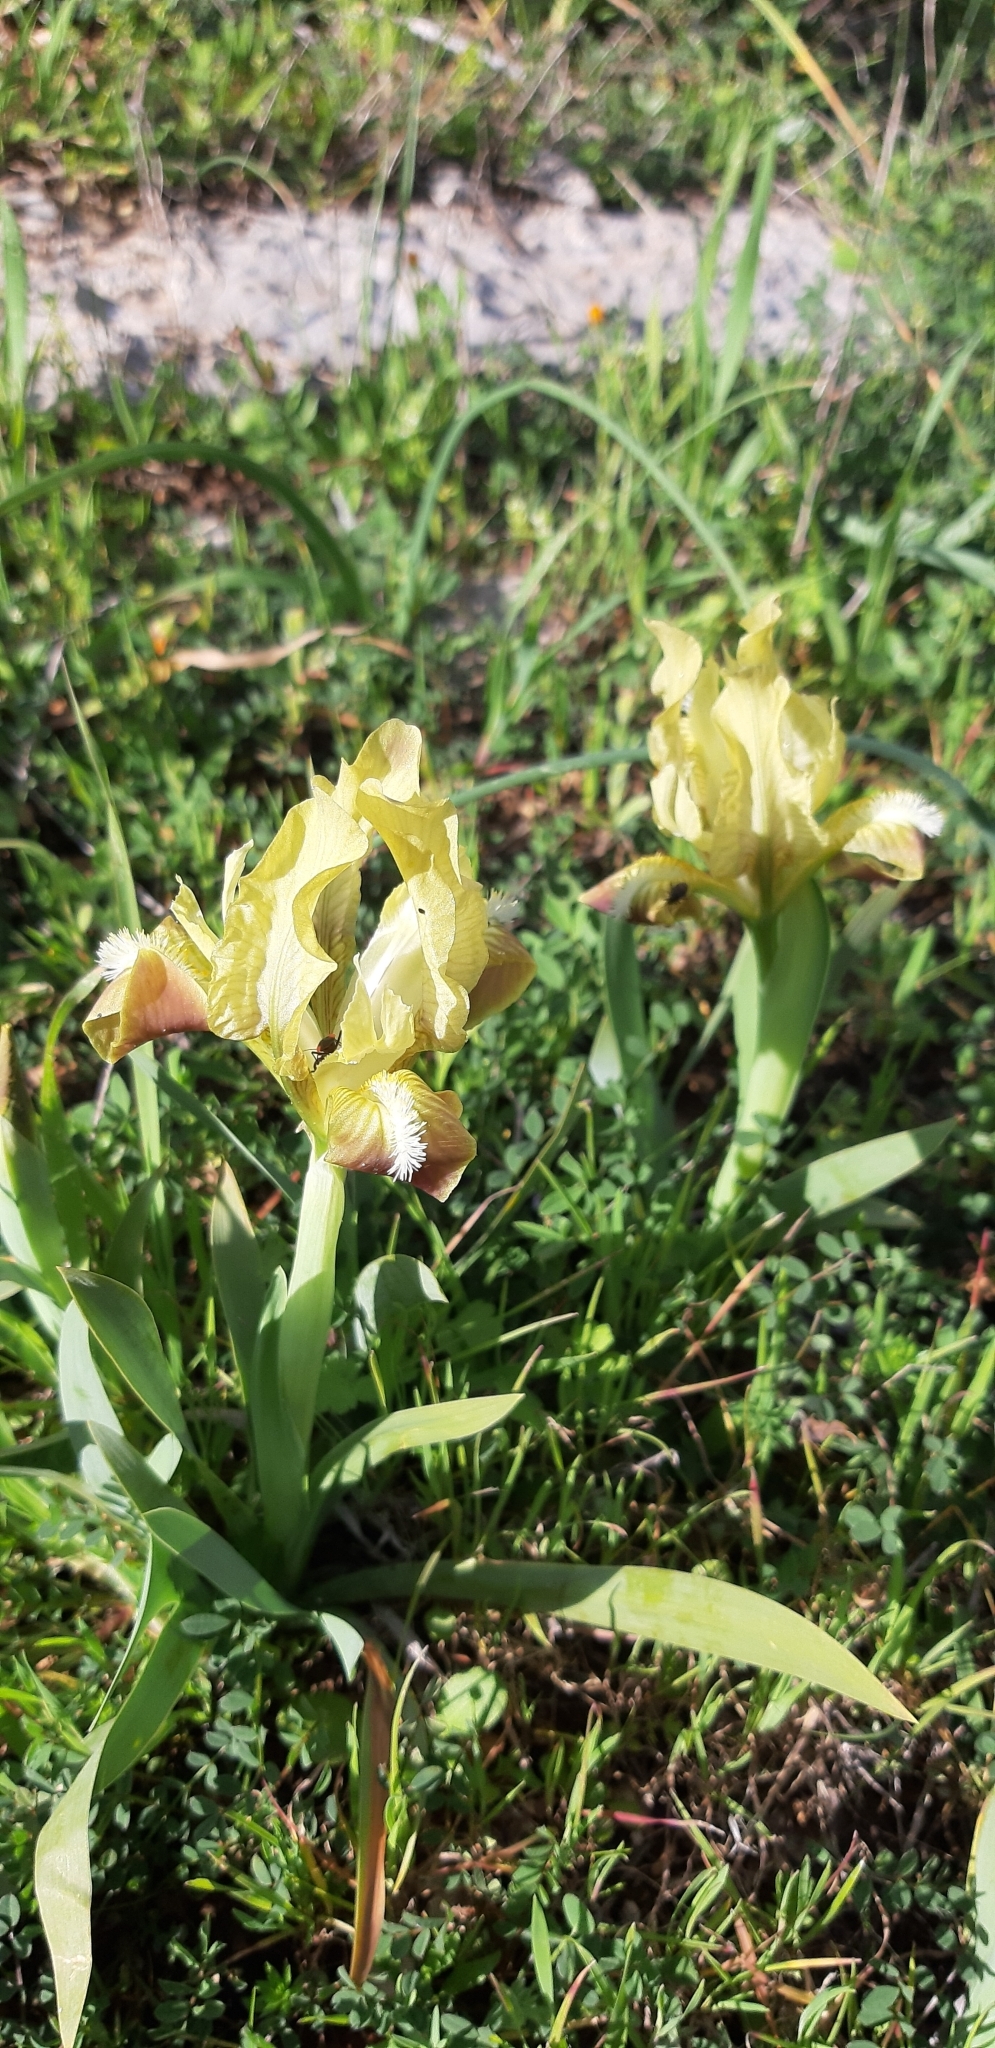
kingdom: Plantae
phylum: Tracheophyta
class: Liliopsida
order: Asparagales
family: Iridaceae
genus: Iris
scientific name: Iris pseudopumila
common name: Southern dwarf iris
